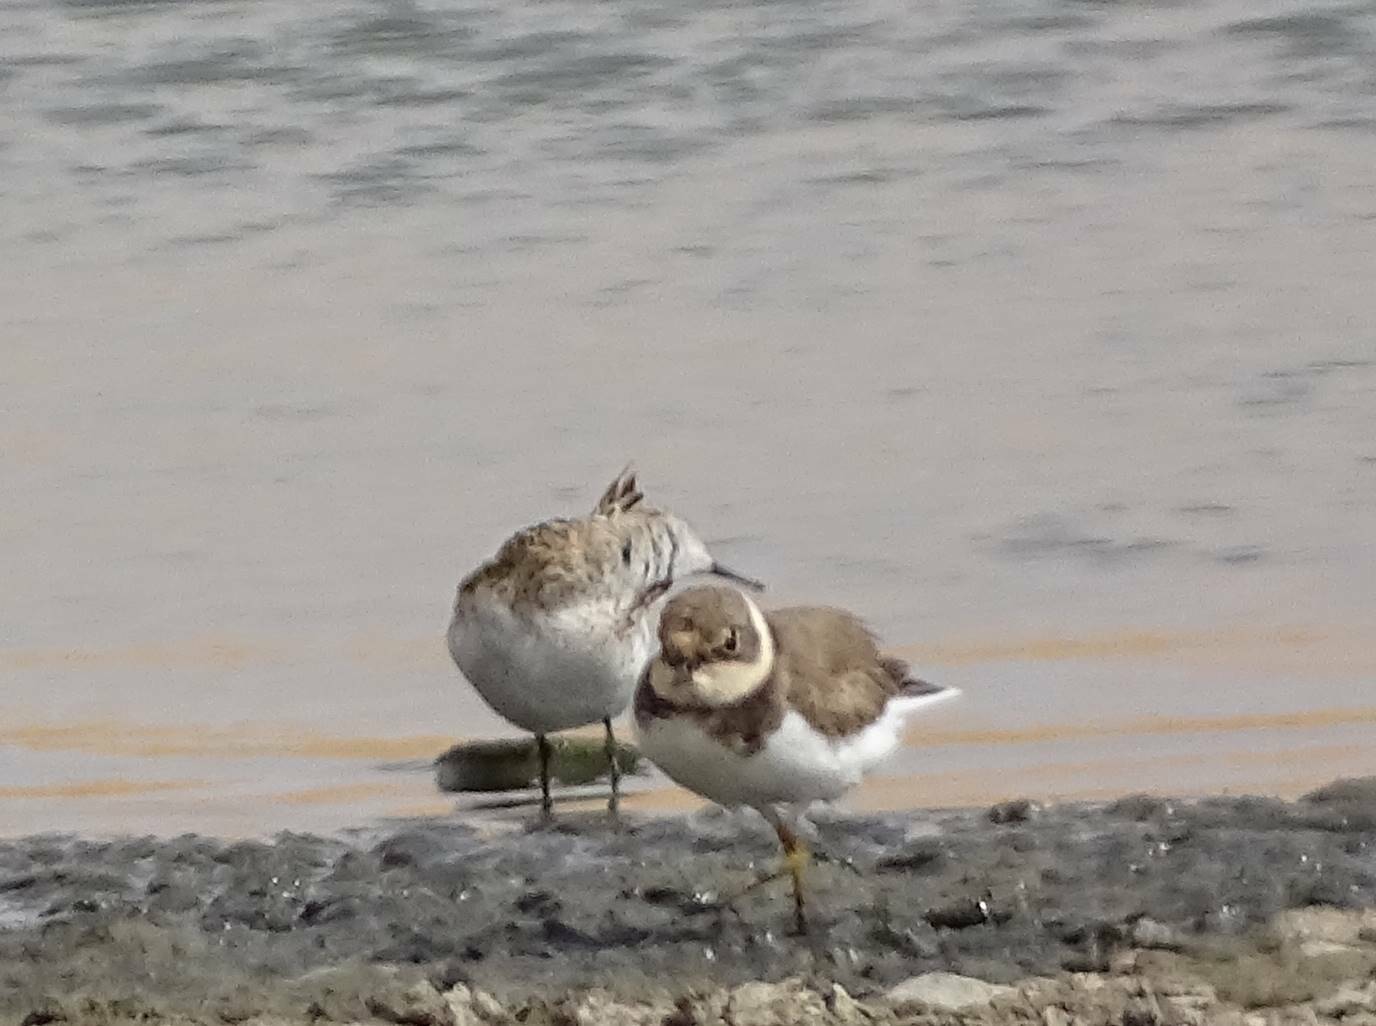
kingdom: Animalia
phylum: Chordata
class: Aves
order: Charadriiformes
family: Charadriidae
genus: Charadrius
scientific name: Charadrius dubius
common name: Little ringed plover
